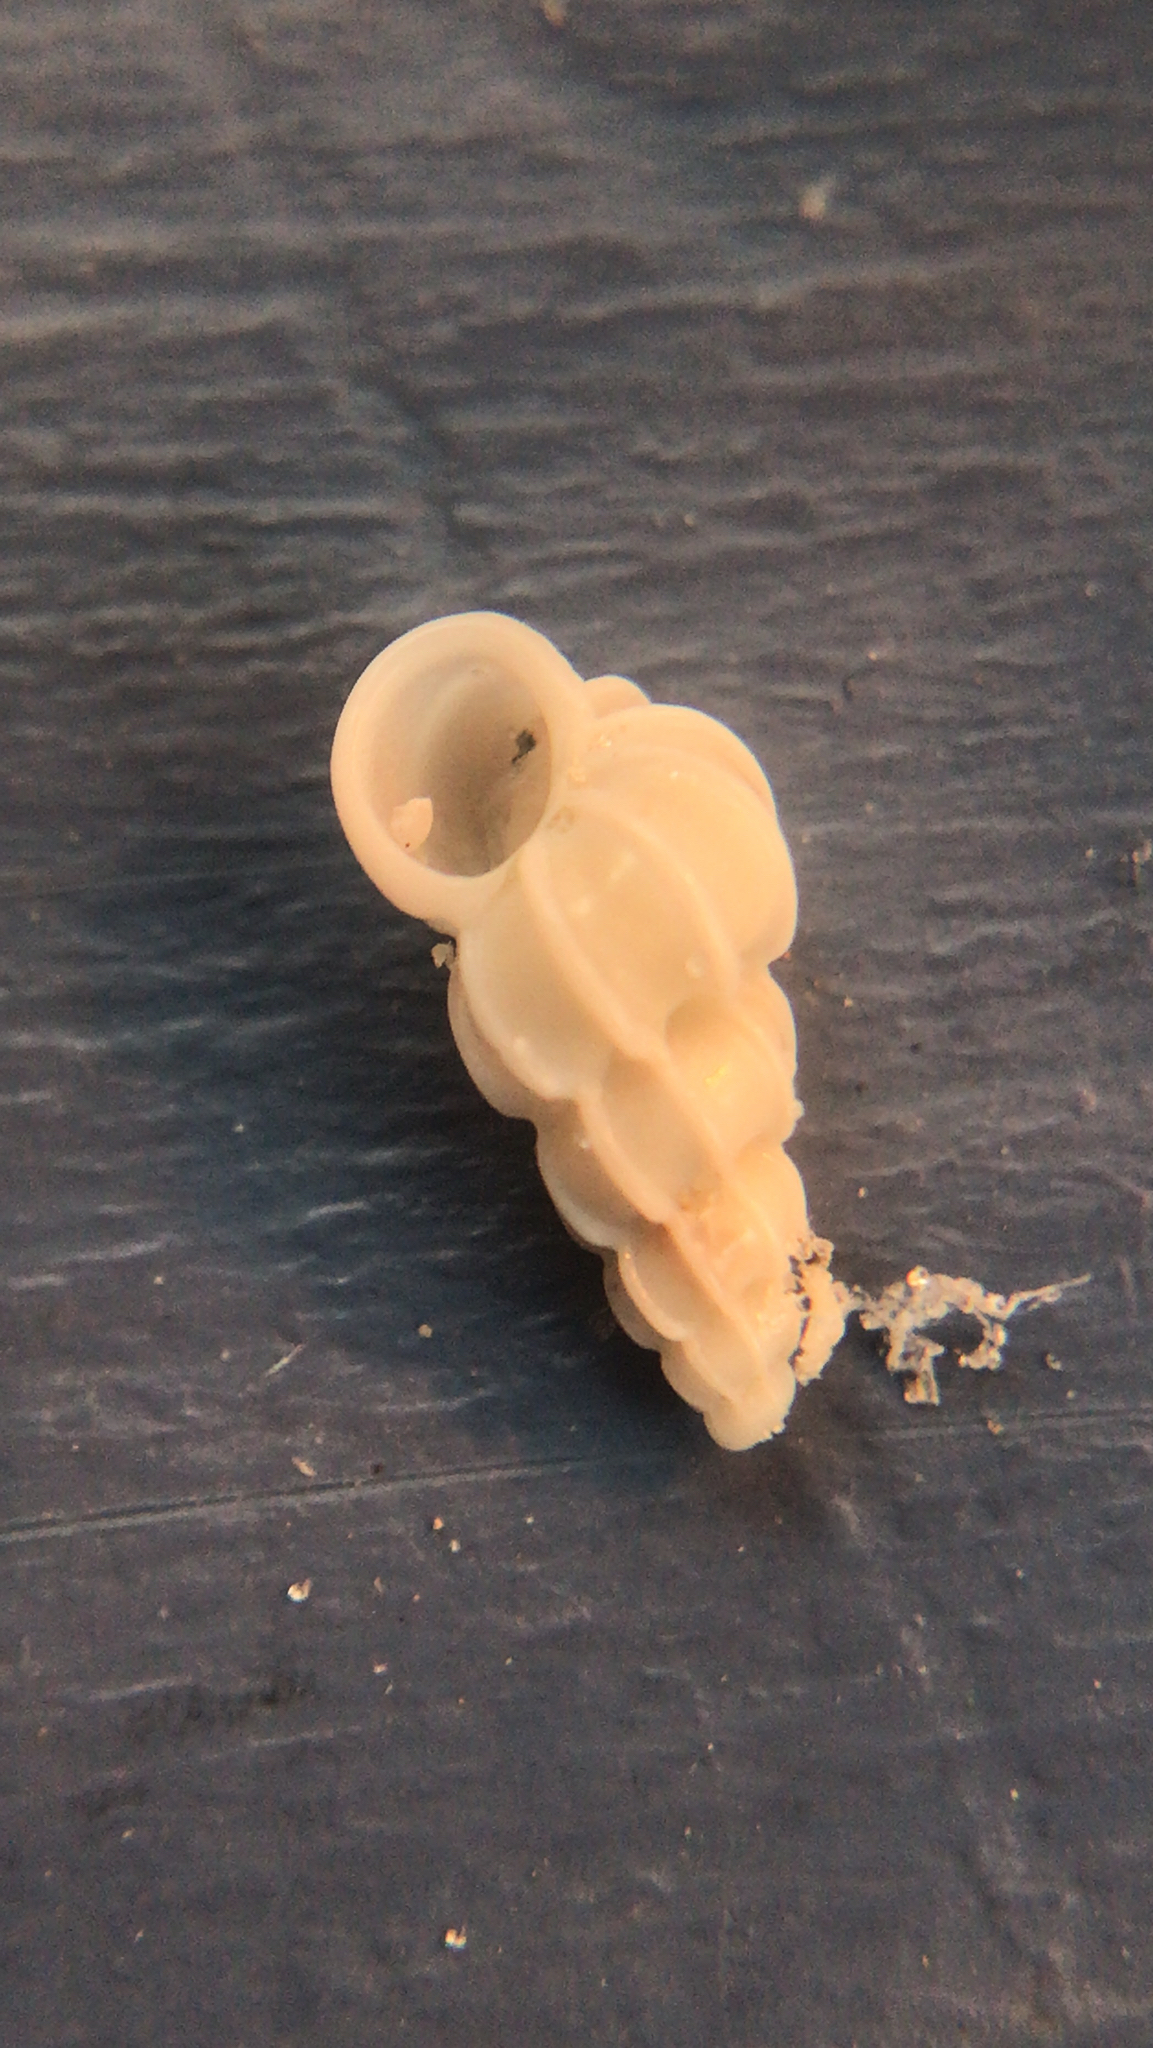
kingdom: Animalia
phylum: Mollusca
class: Gastropoda
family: Epitoniidae
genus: Epitonium
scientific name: Epitonium humphreysii
